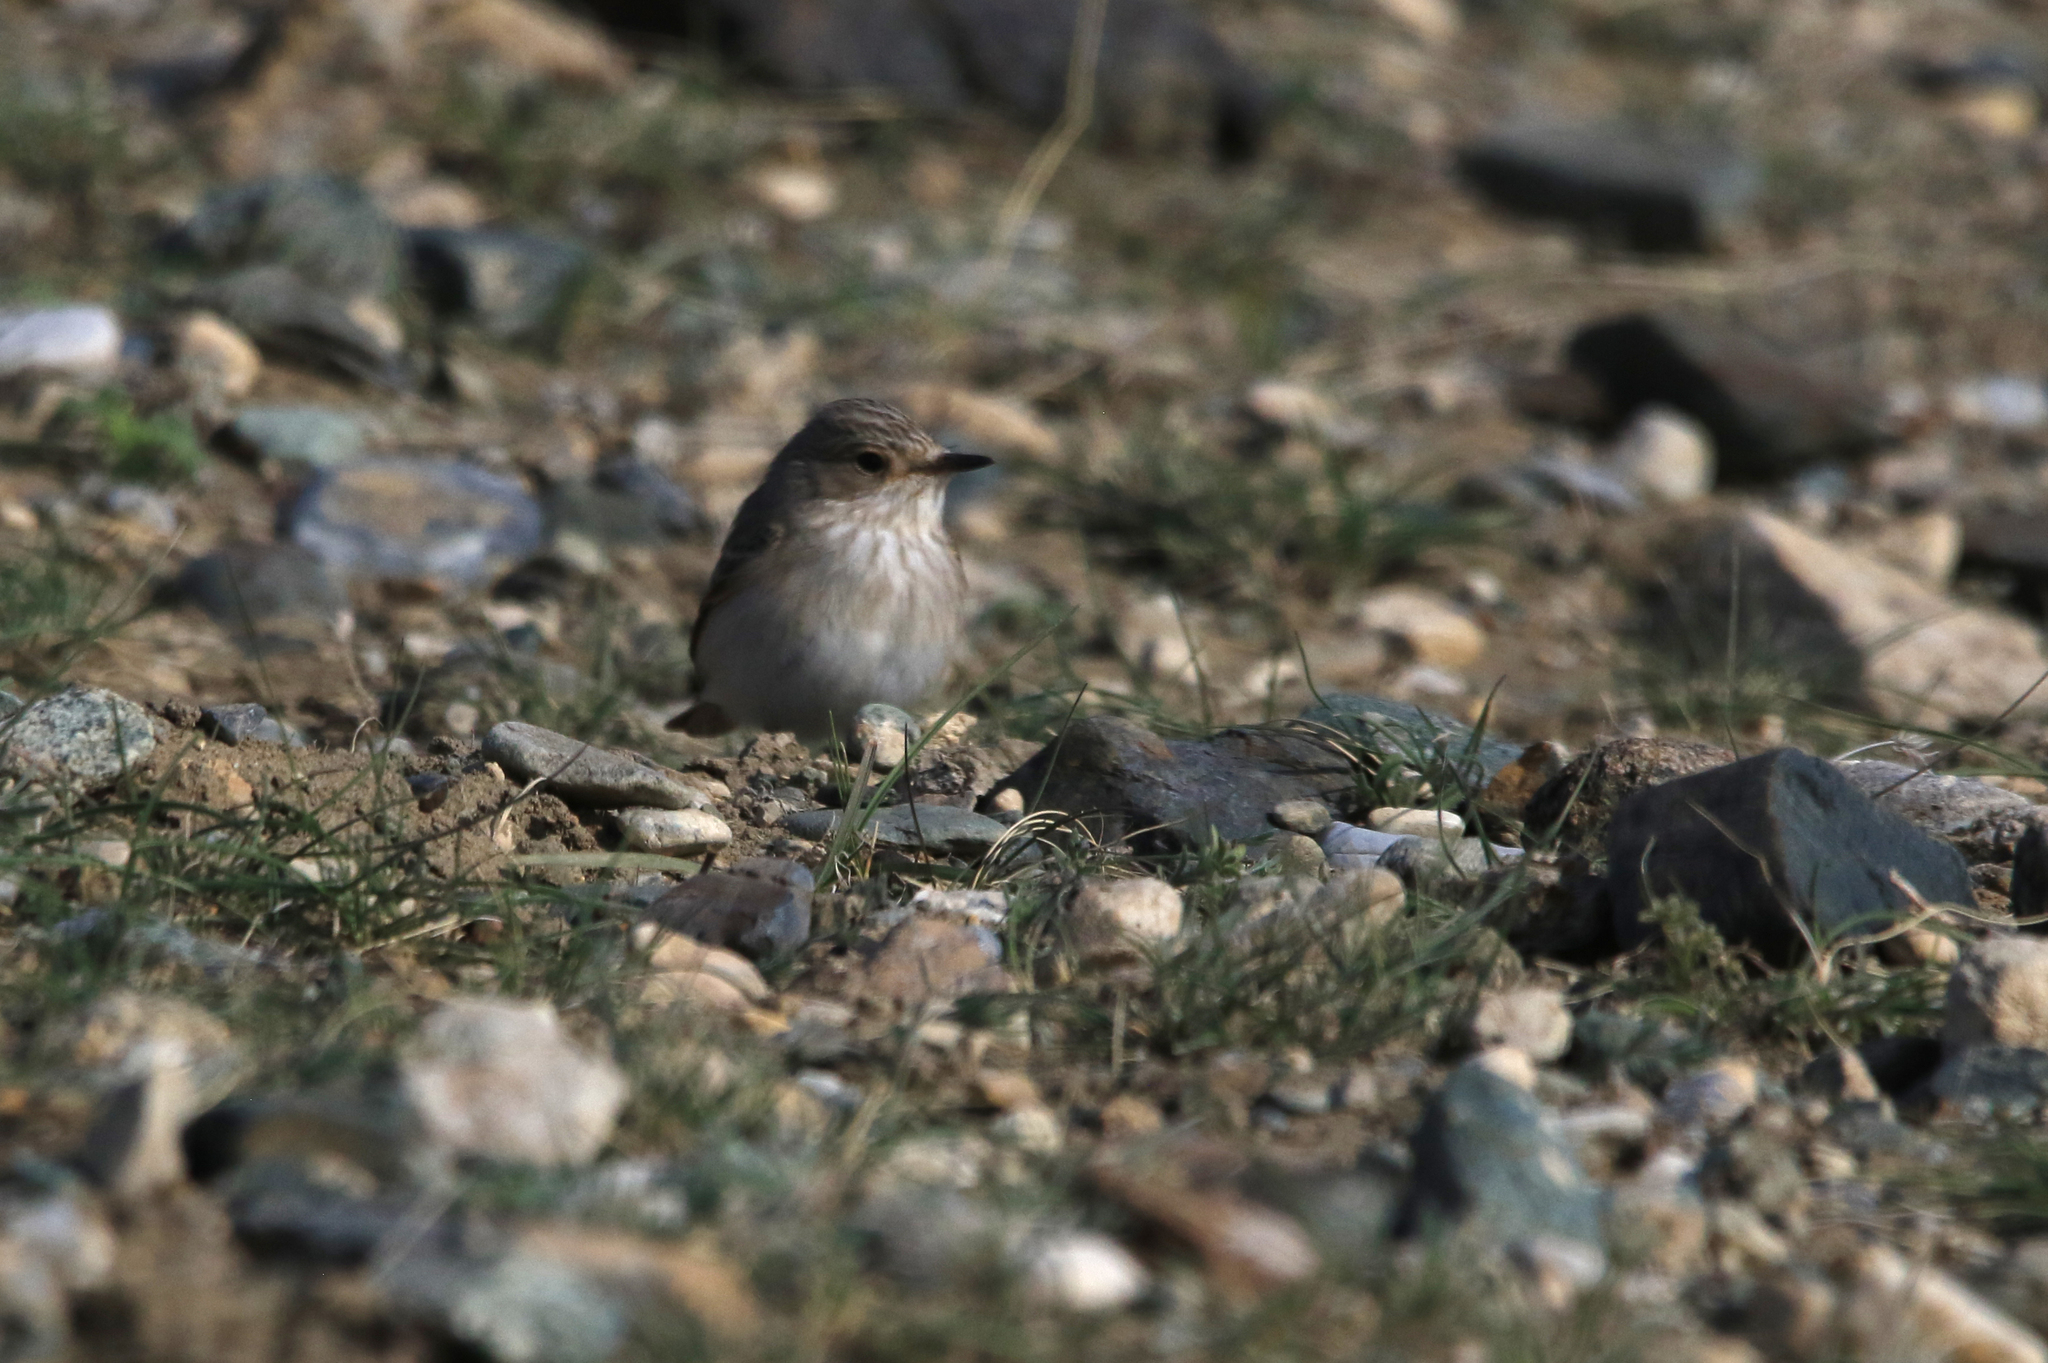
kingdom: Animalia
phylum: Chordata
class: Aves
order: Passeriformes
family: Muscicapidae
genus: Muscicapa
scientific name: Muscicapa striata
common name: Spotted flycatcher
